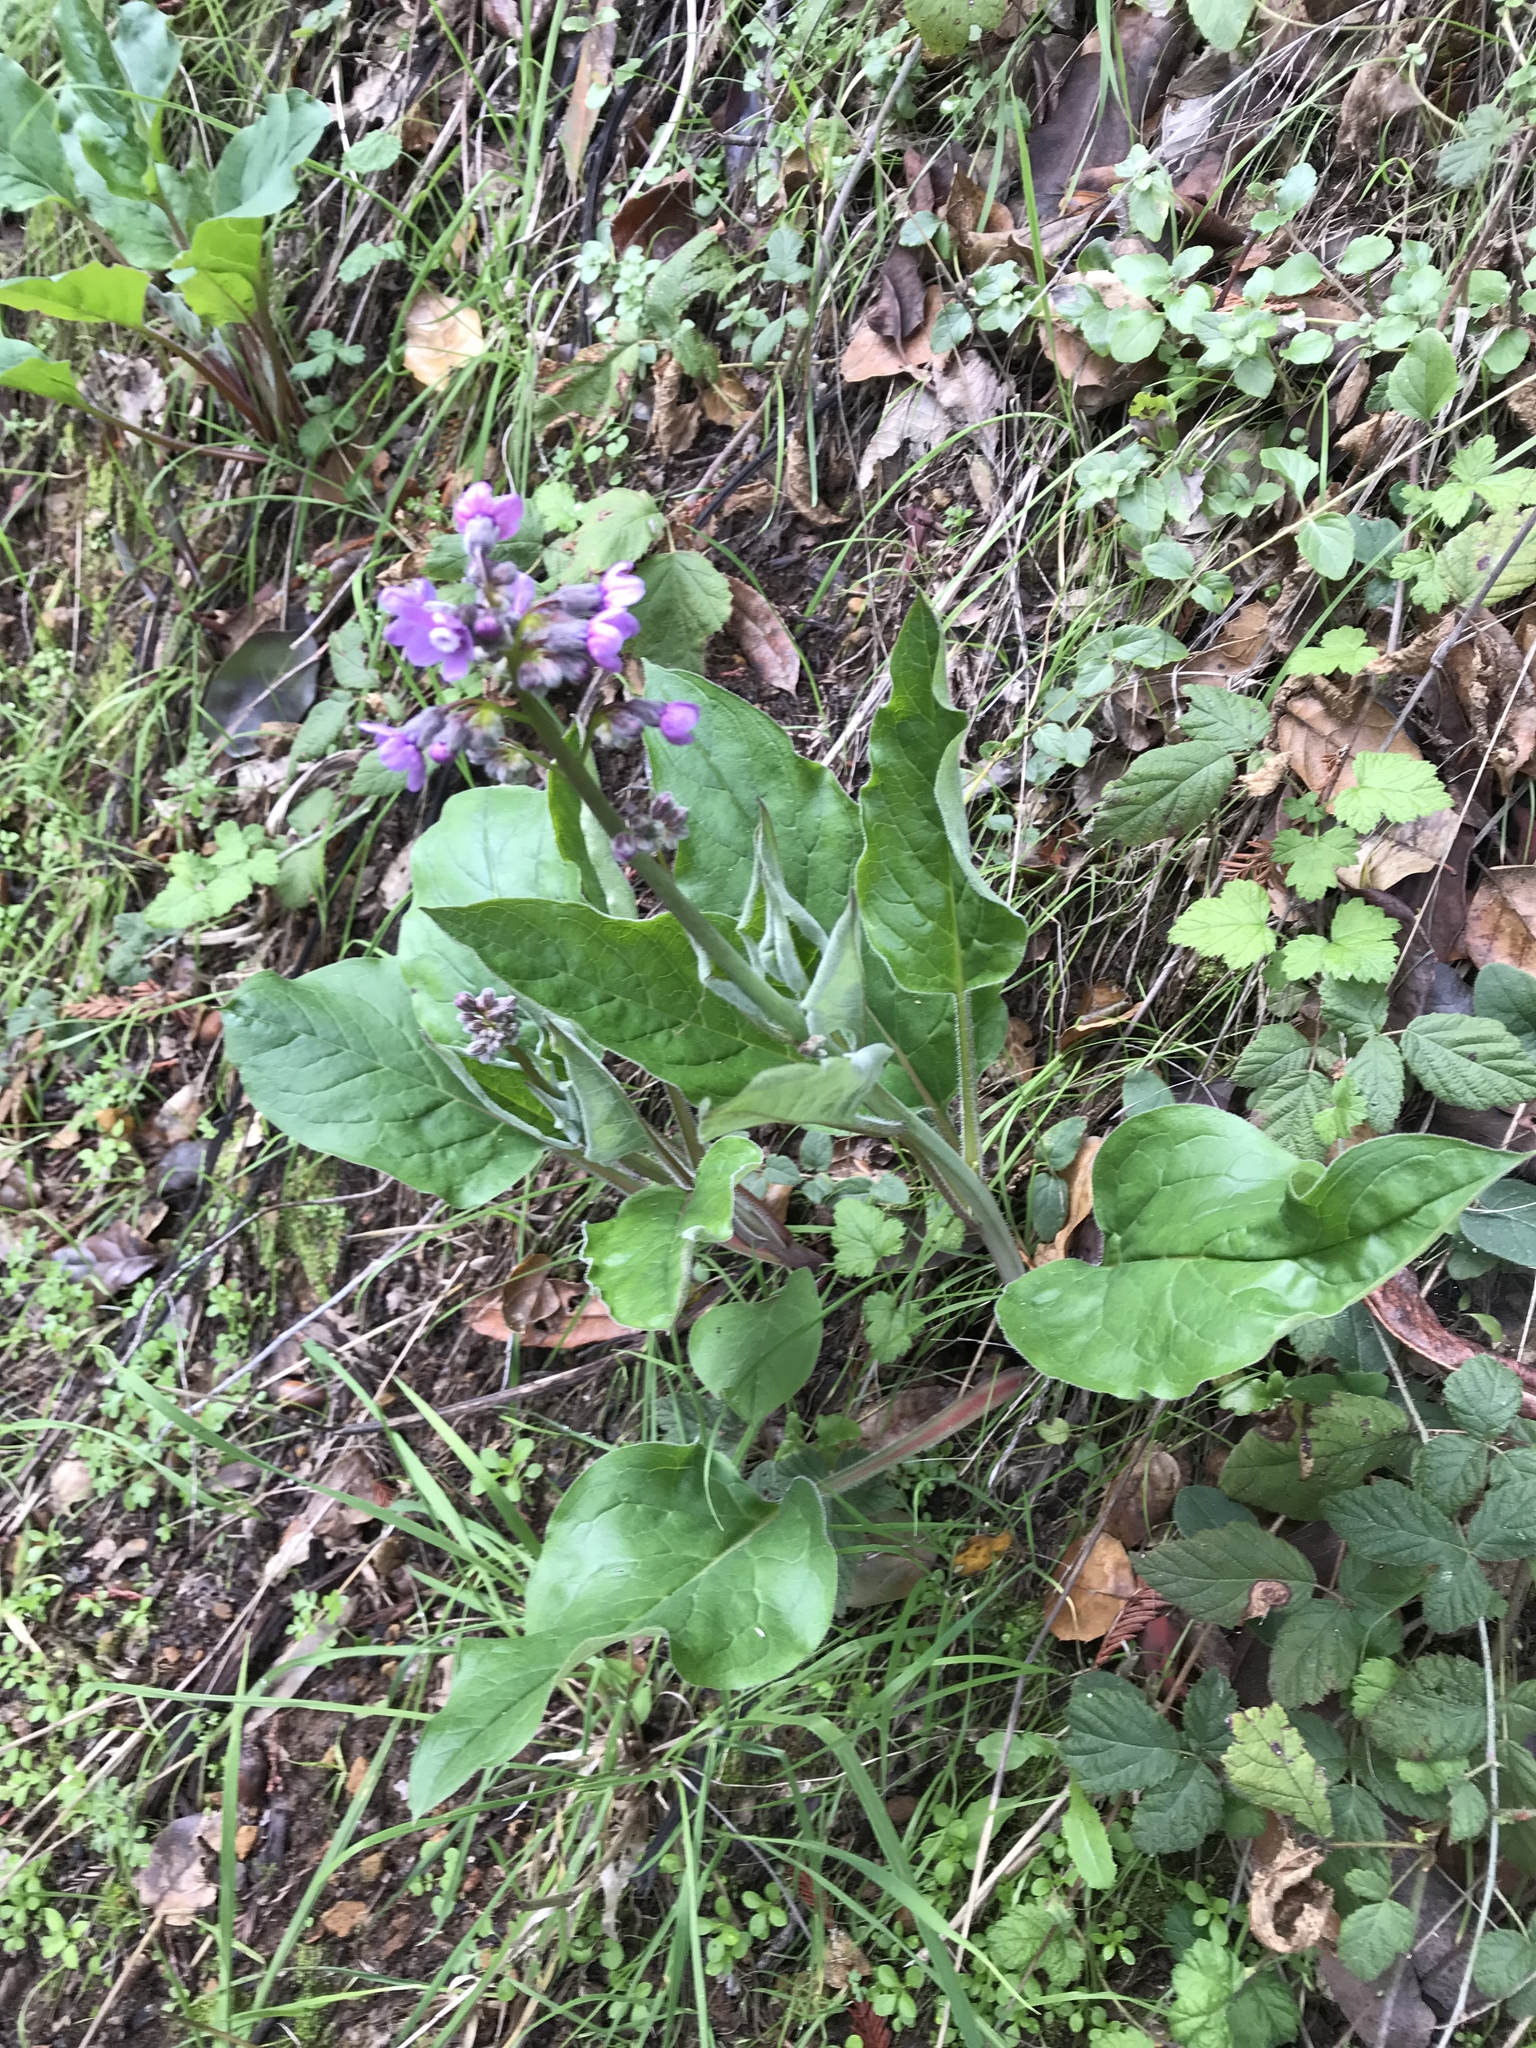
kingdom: Plantae
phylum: Tracheophyta
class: Magnoliopsida
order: Boraginales
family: Boraginaceae
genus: Adelinia
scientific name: Adelinia grande
